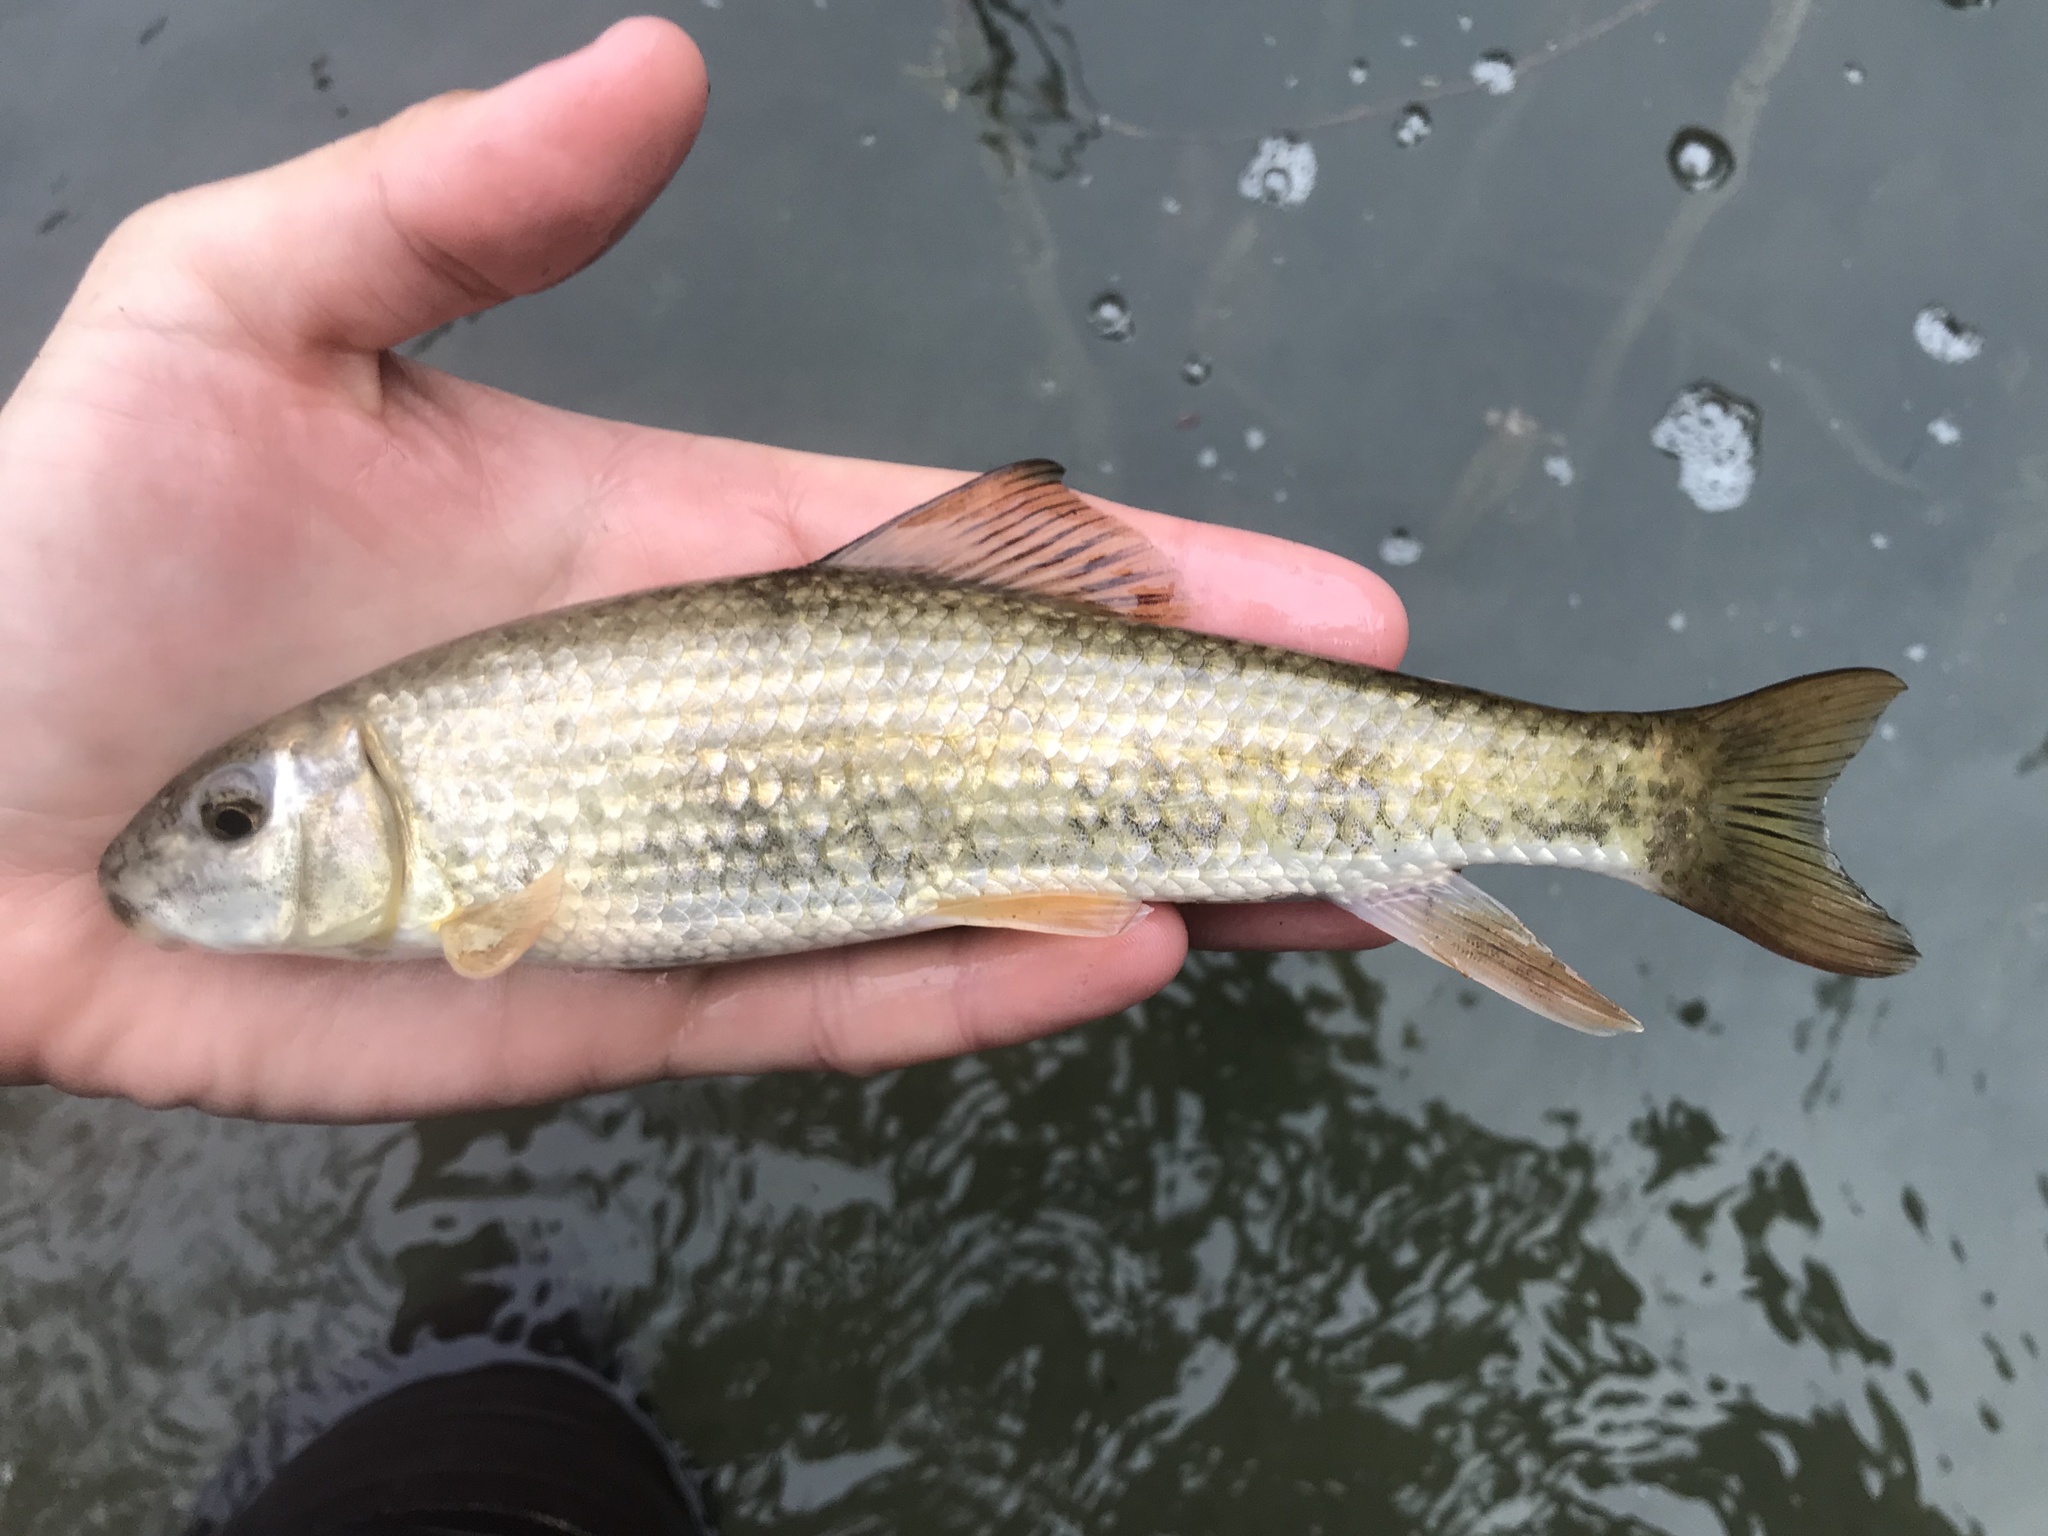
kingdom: Animalia
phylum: Chordata
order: Cypriniformes
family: Catostomidae
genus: Moxostoma
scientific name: Moxostoma congestum
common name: Gray redhorse
